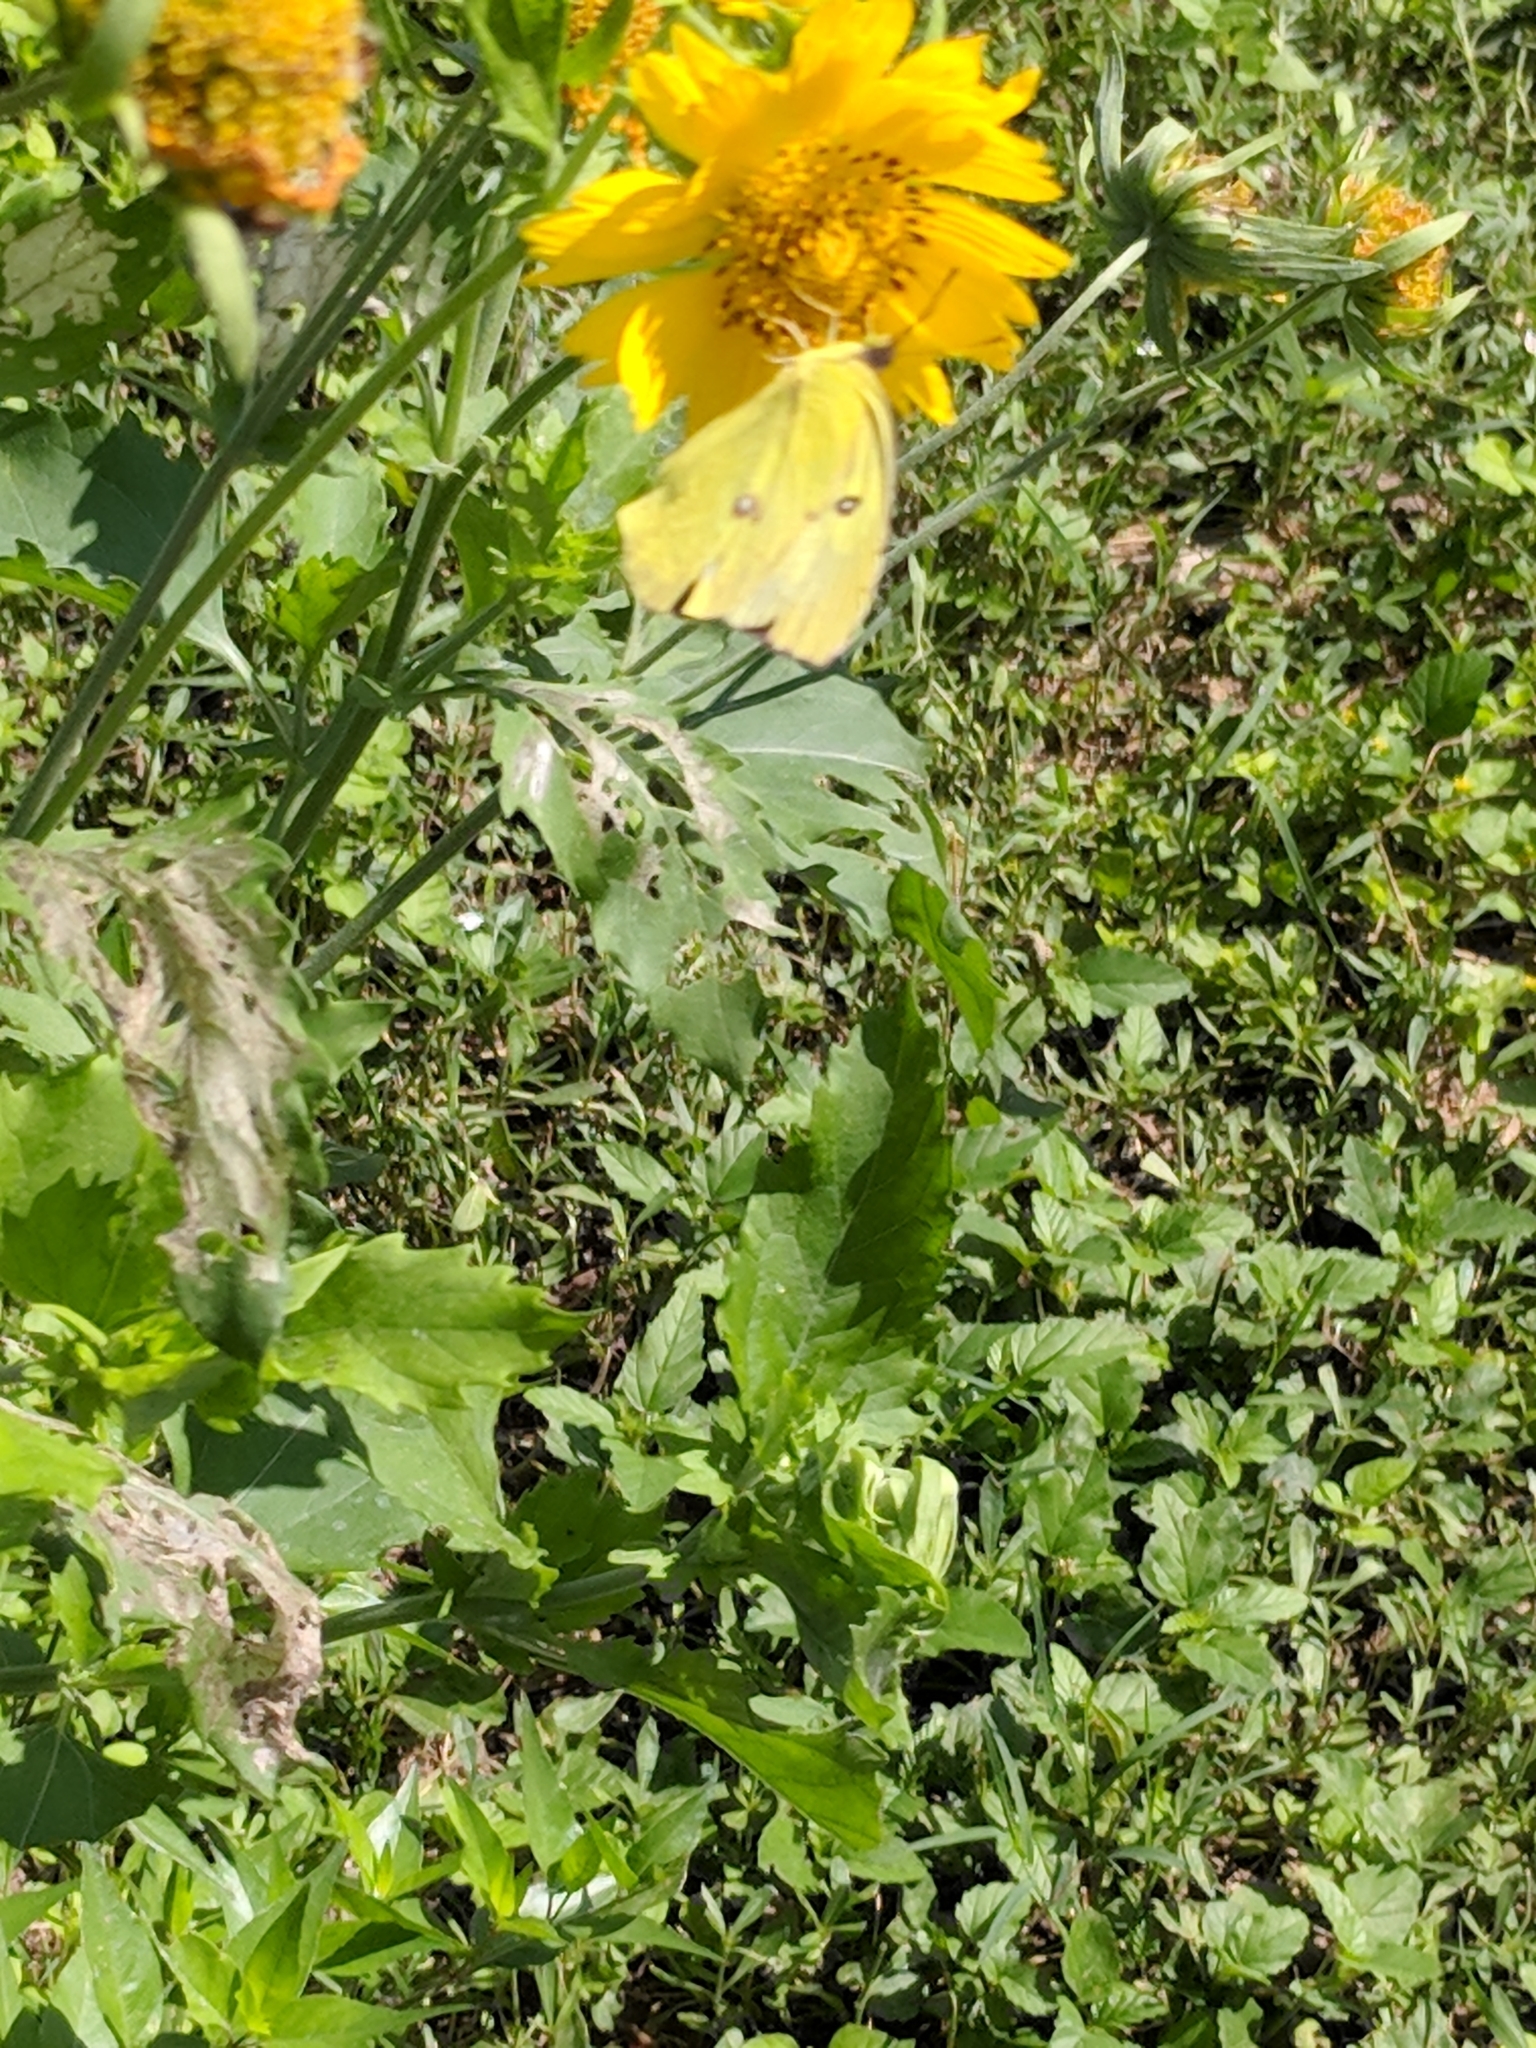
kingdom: Animalia
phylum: Arthropoda
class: Insecta
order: Lepidoptera
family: Pieridae
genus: Zerene
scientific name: Zerene cesonia
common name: Southern dogface
